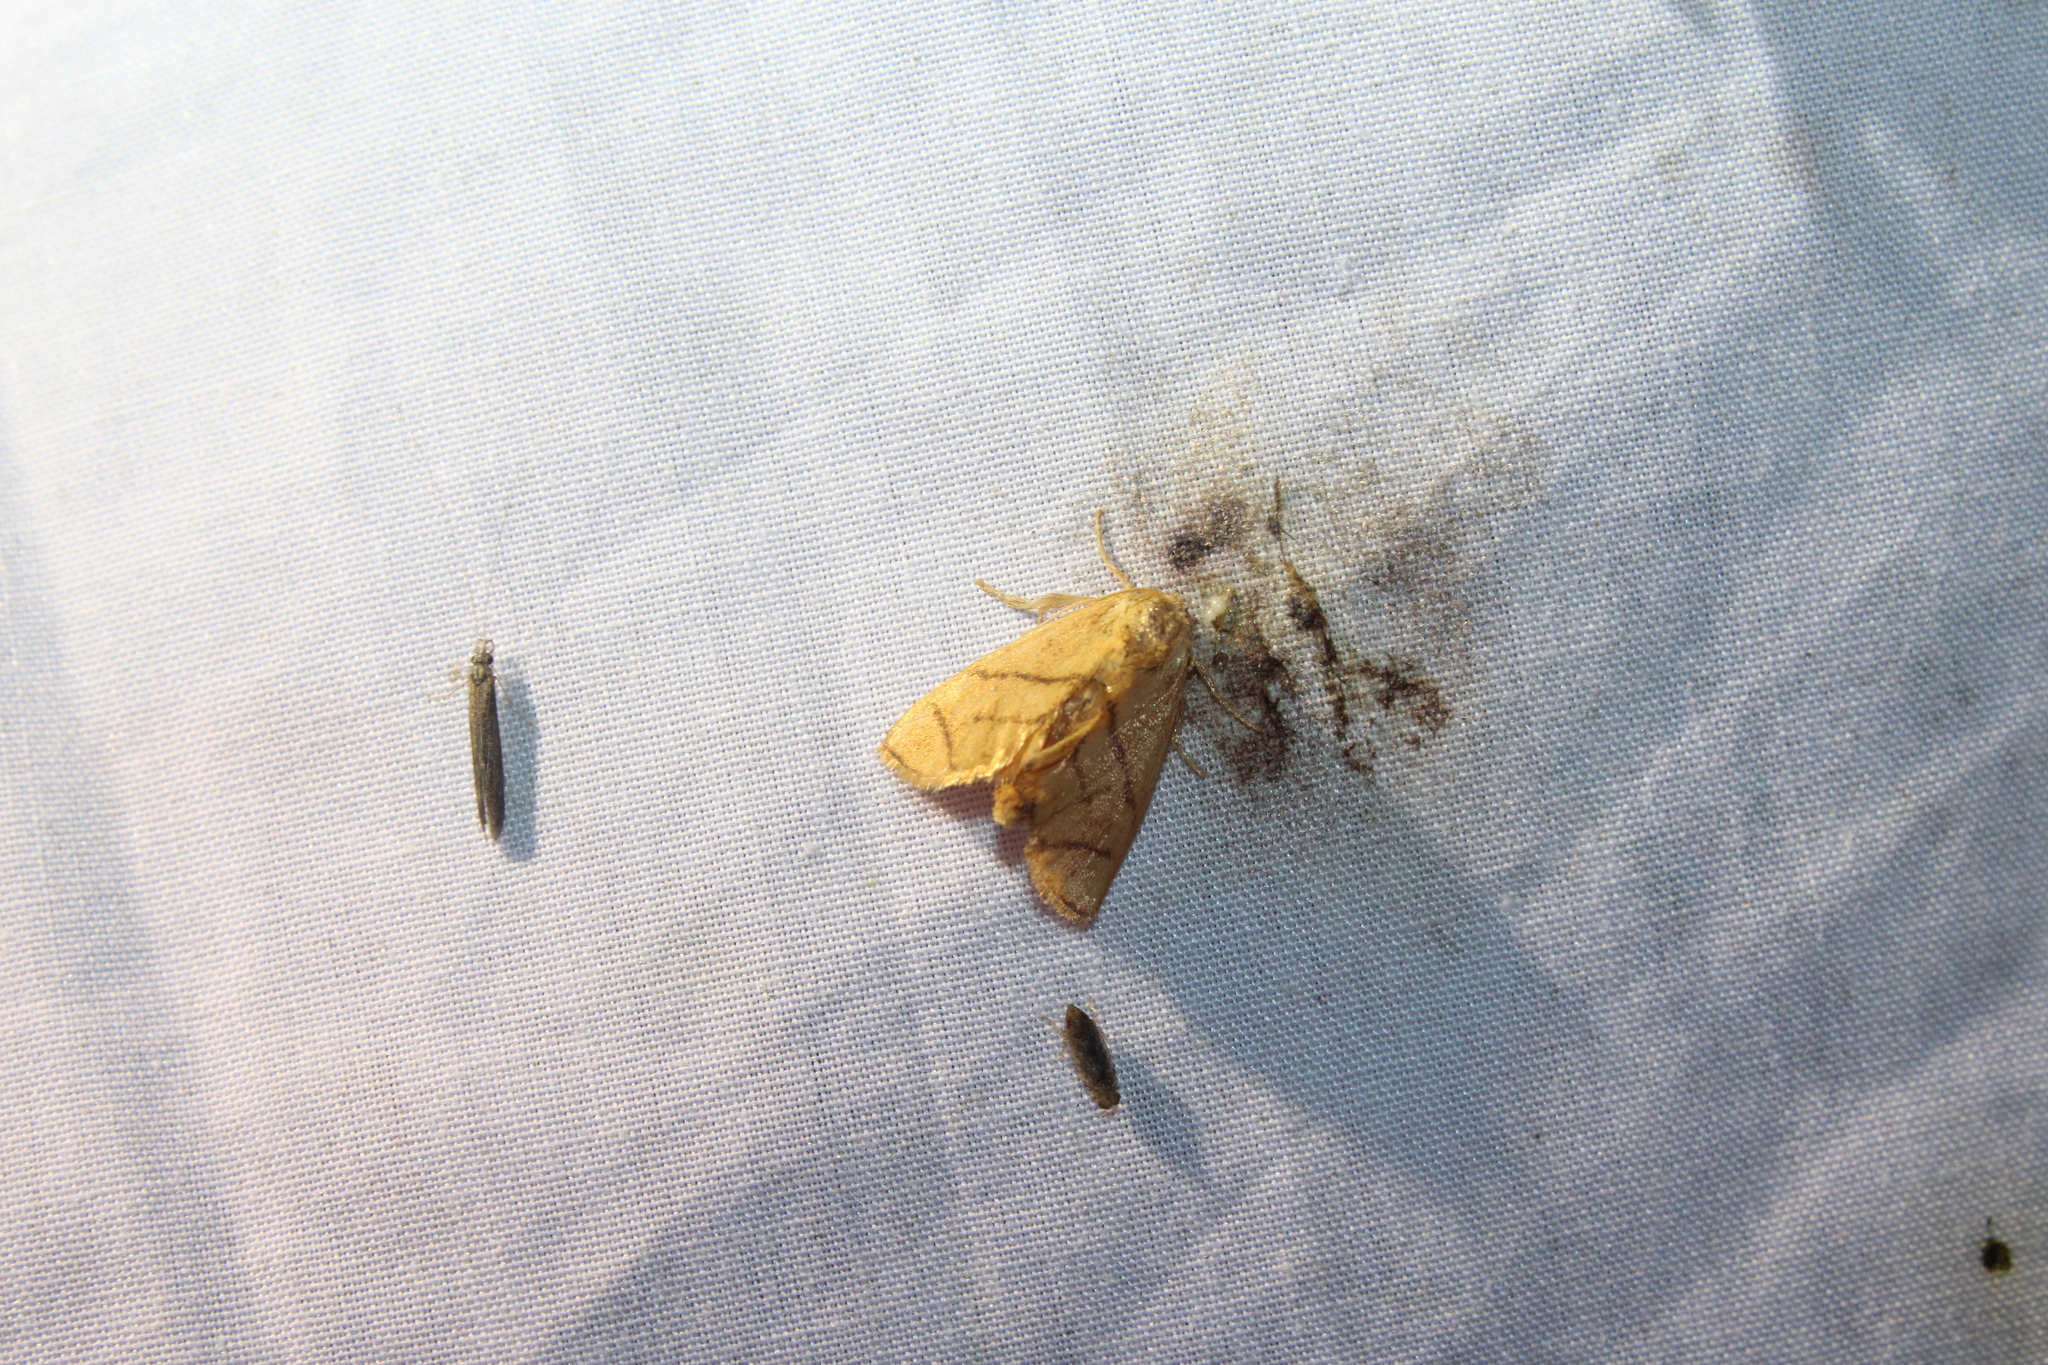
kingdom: Animalia
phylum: Arthropoda
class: Insecta
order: Lepidoptera
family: Limacodidae
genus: Apoda
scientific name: Apoda y-inversa
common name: Yellow-collared slug moth
